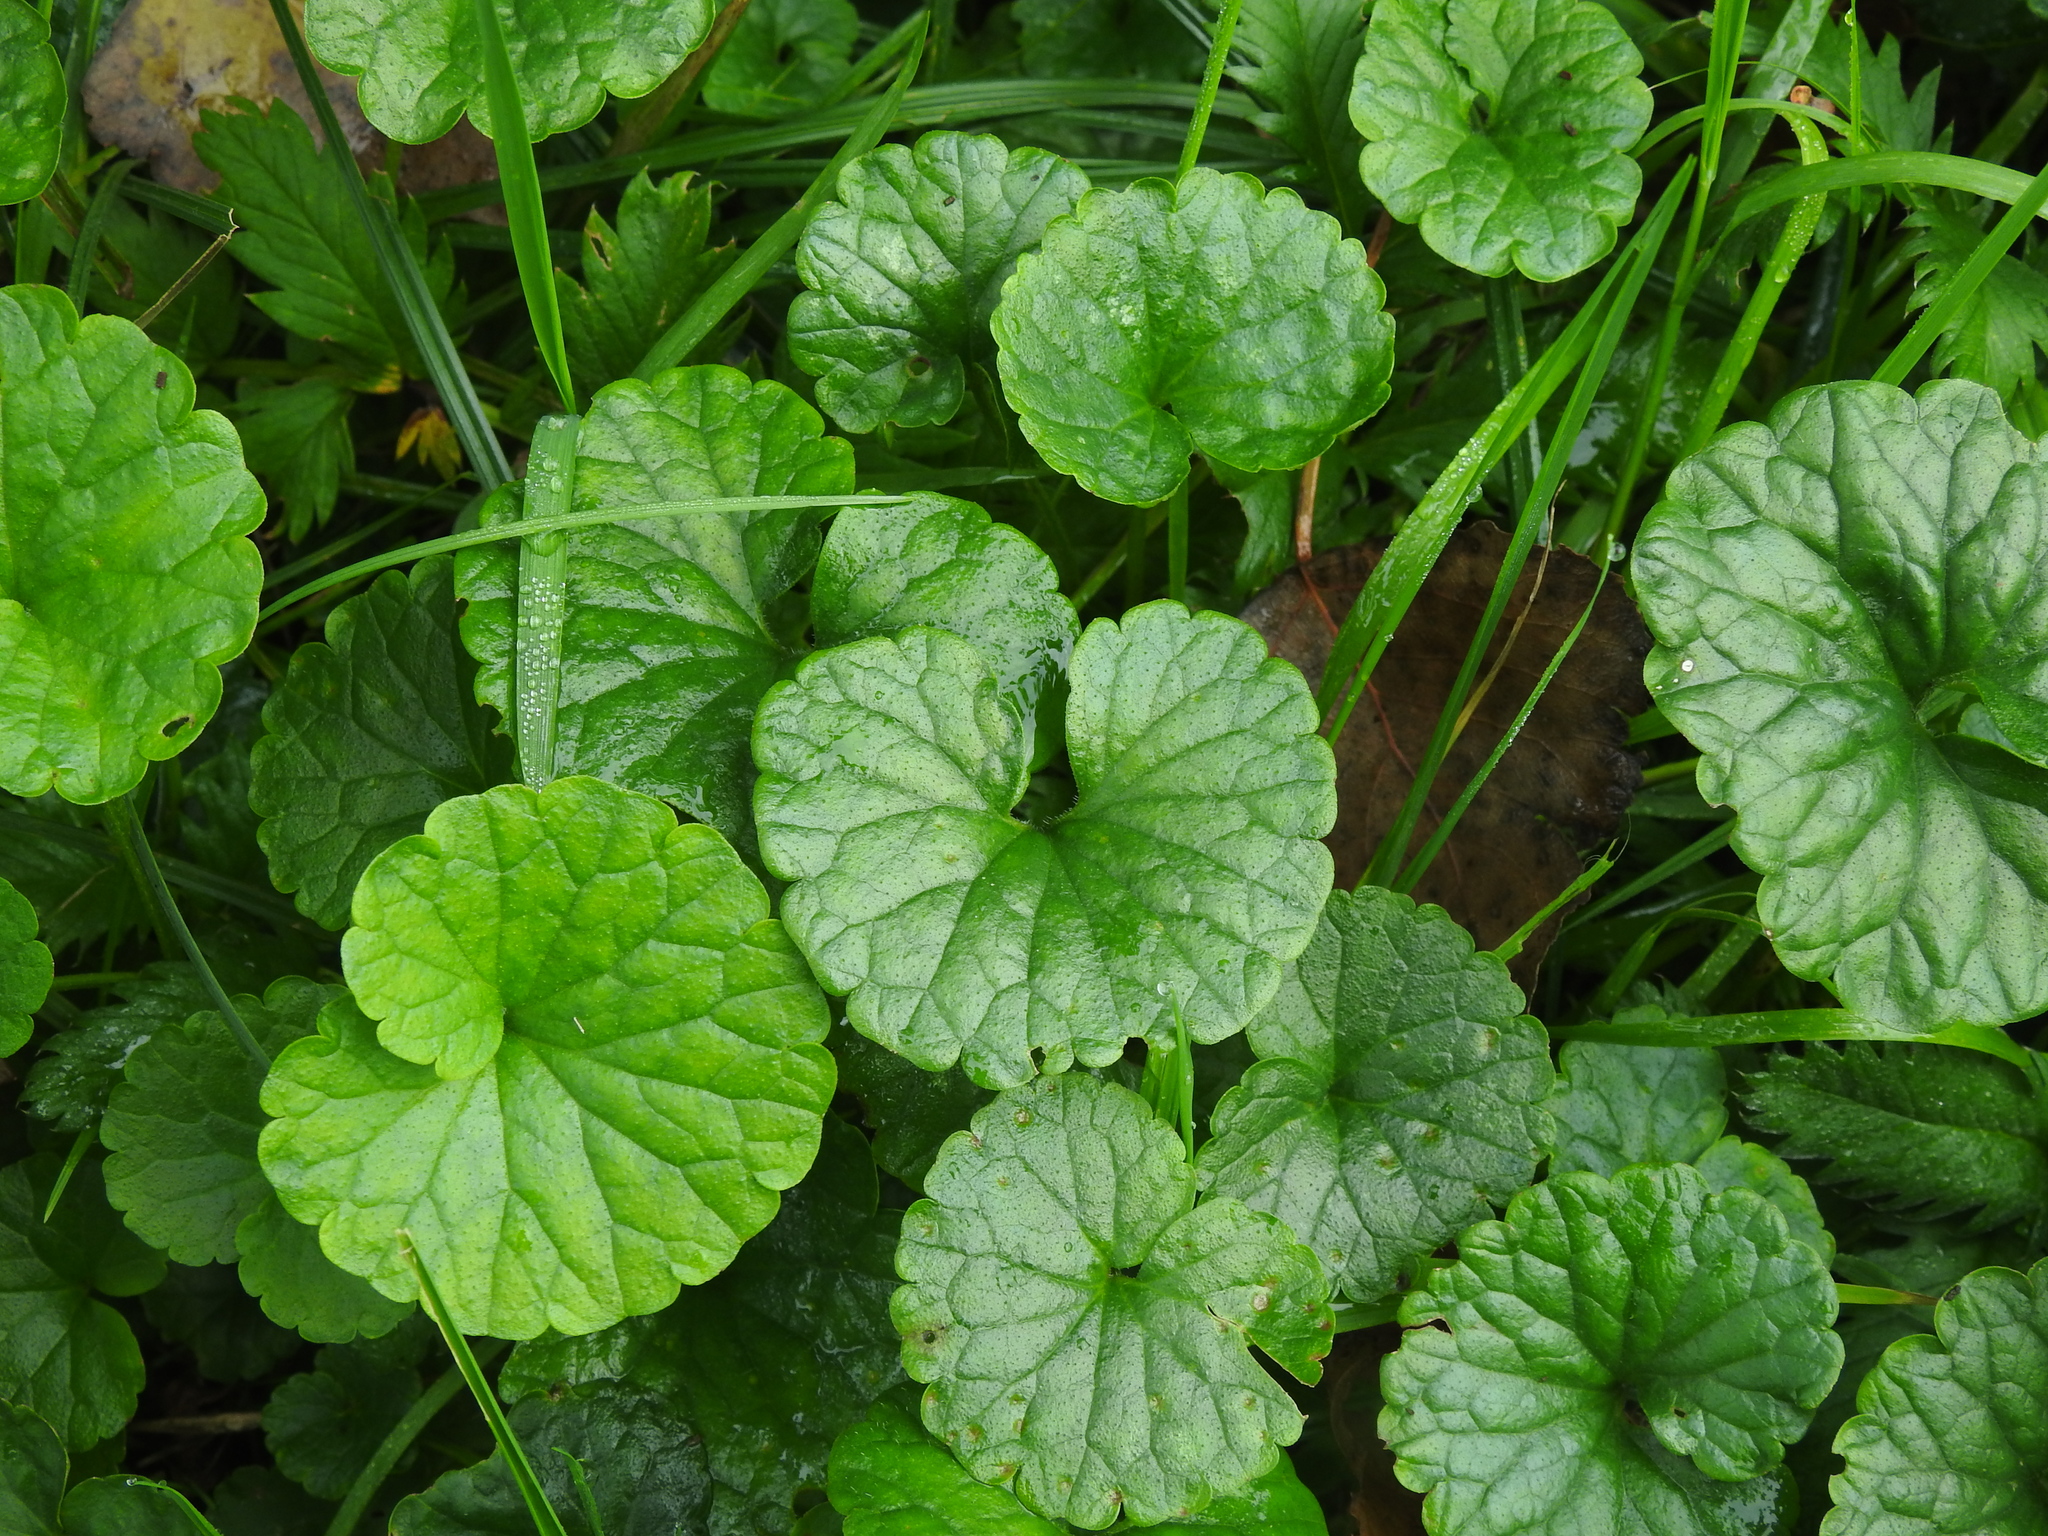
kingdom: Plantae
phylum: Tracheophyta
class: Magnoliopsida
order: Lamiales
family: Lamiaceae
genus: Glechoma
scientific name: Glechoma hederacea
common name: Ground ivy
